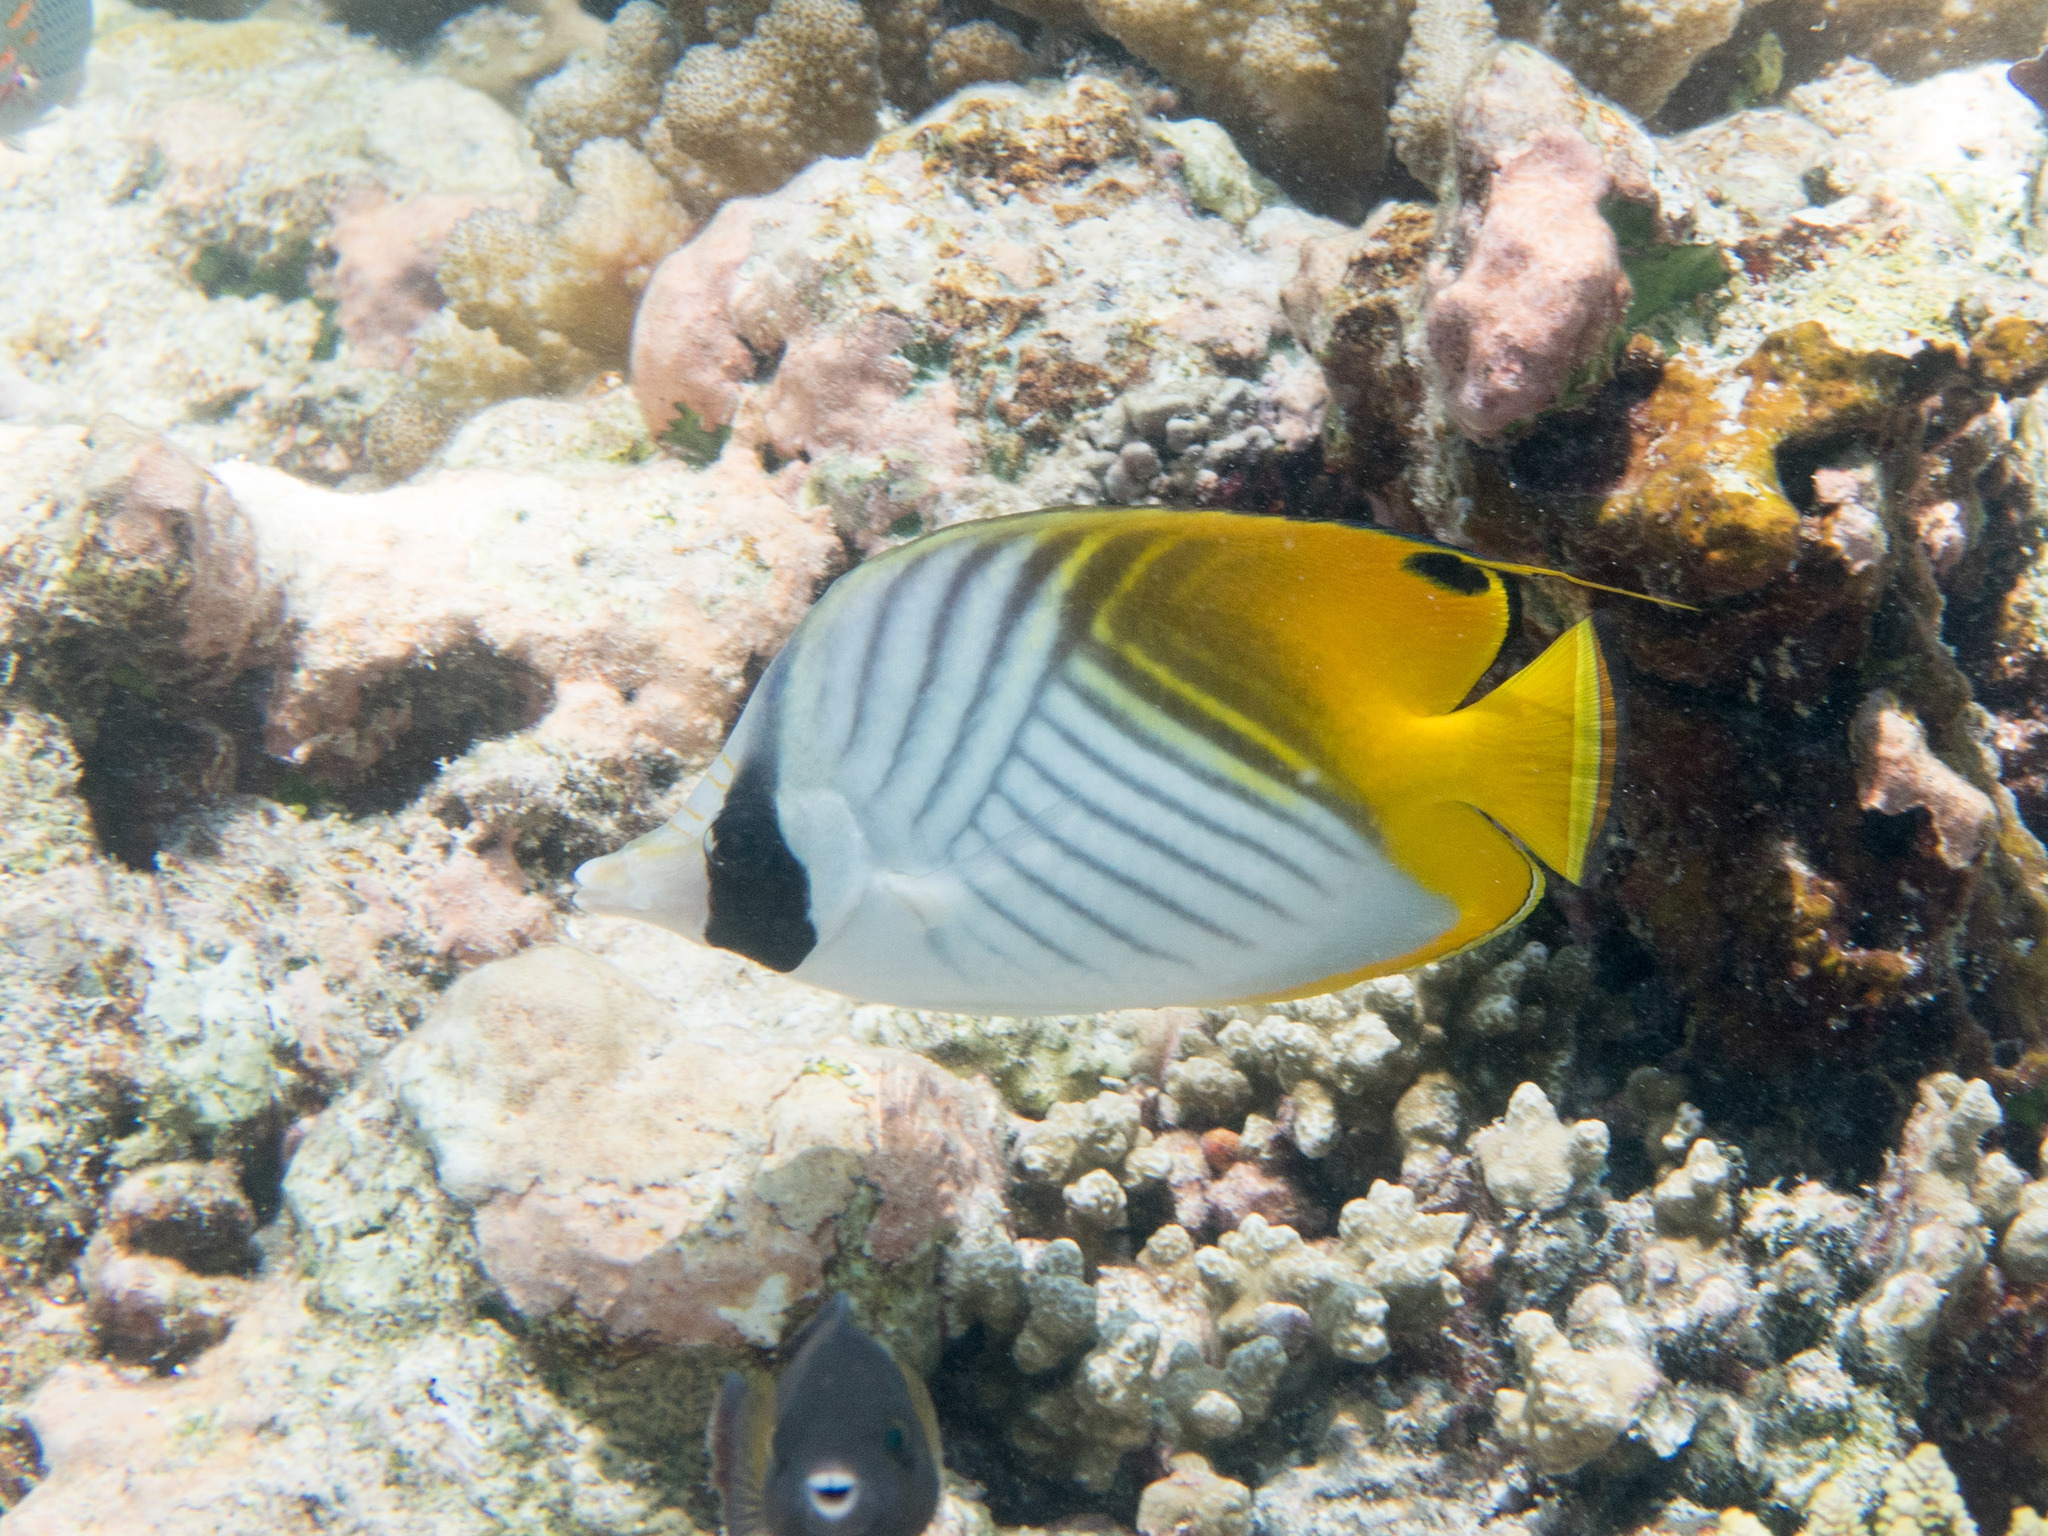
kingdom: Animalia
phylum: Chordata
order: Perciformes
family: Chaetodontidae
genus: Chaetodon
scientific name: Chaetodon auriga
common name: Threadfin butterflyfish
